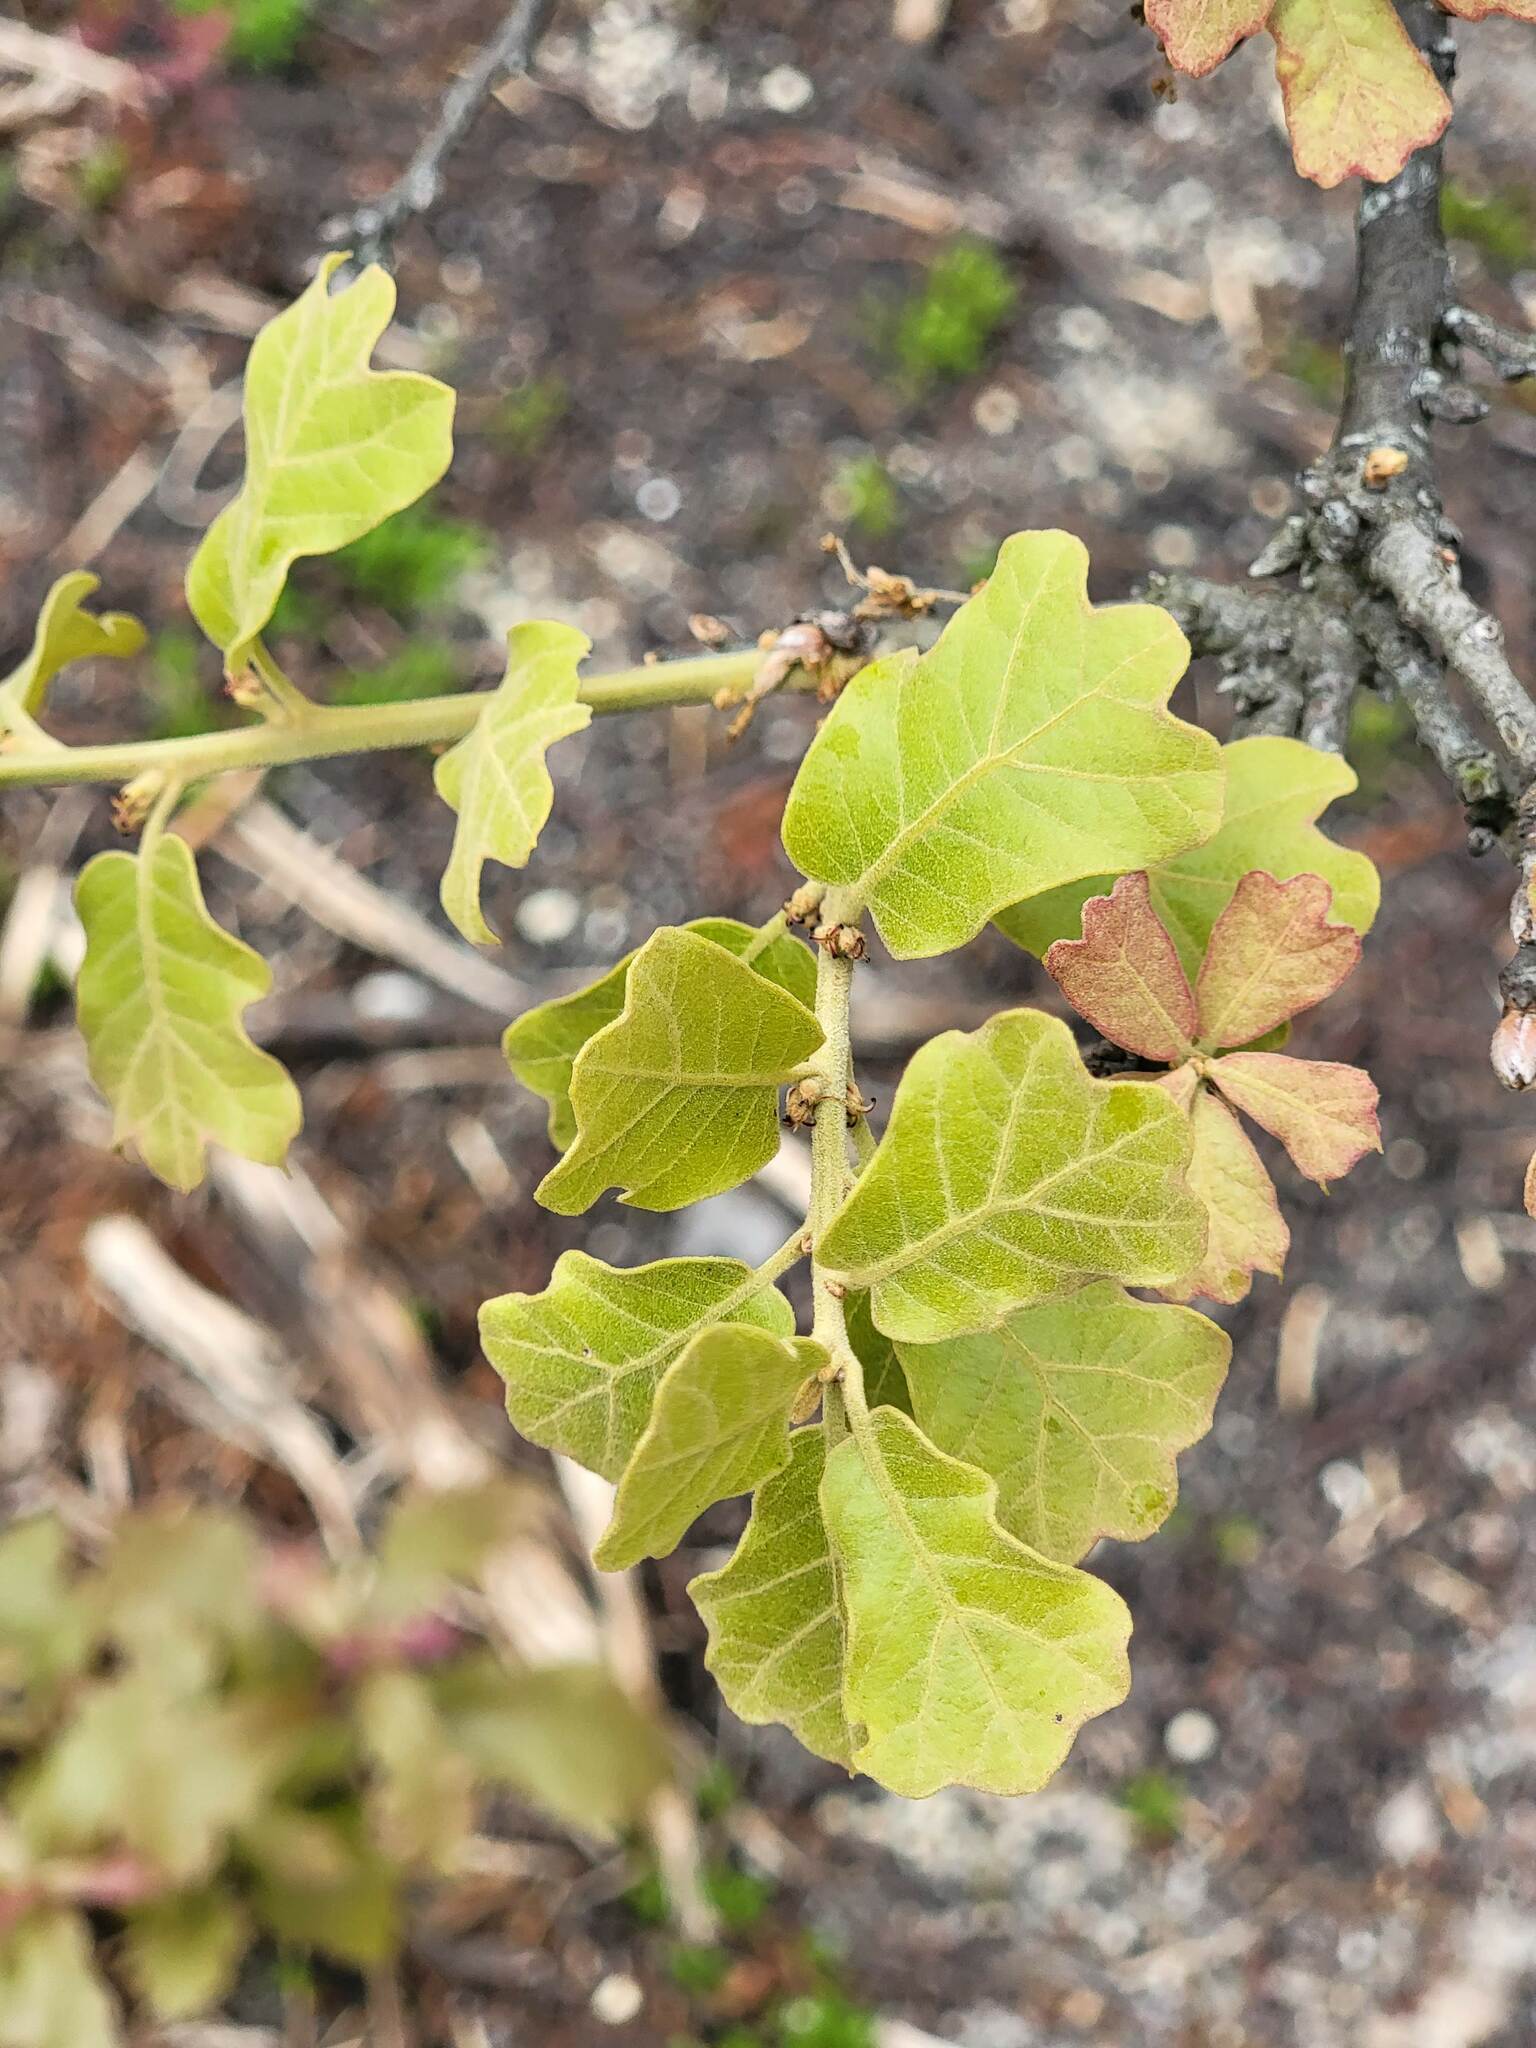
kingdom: Plantae
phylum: Tracheophyta
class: Magnoliopsida
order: Fagales
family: Fagaceae
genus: Quercus
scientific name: Quercus marilandica
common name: Blackjack oak
